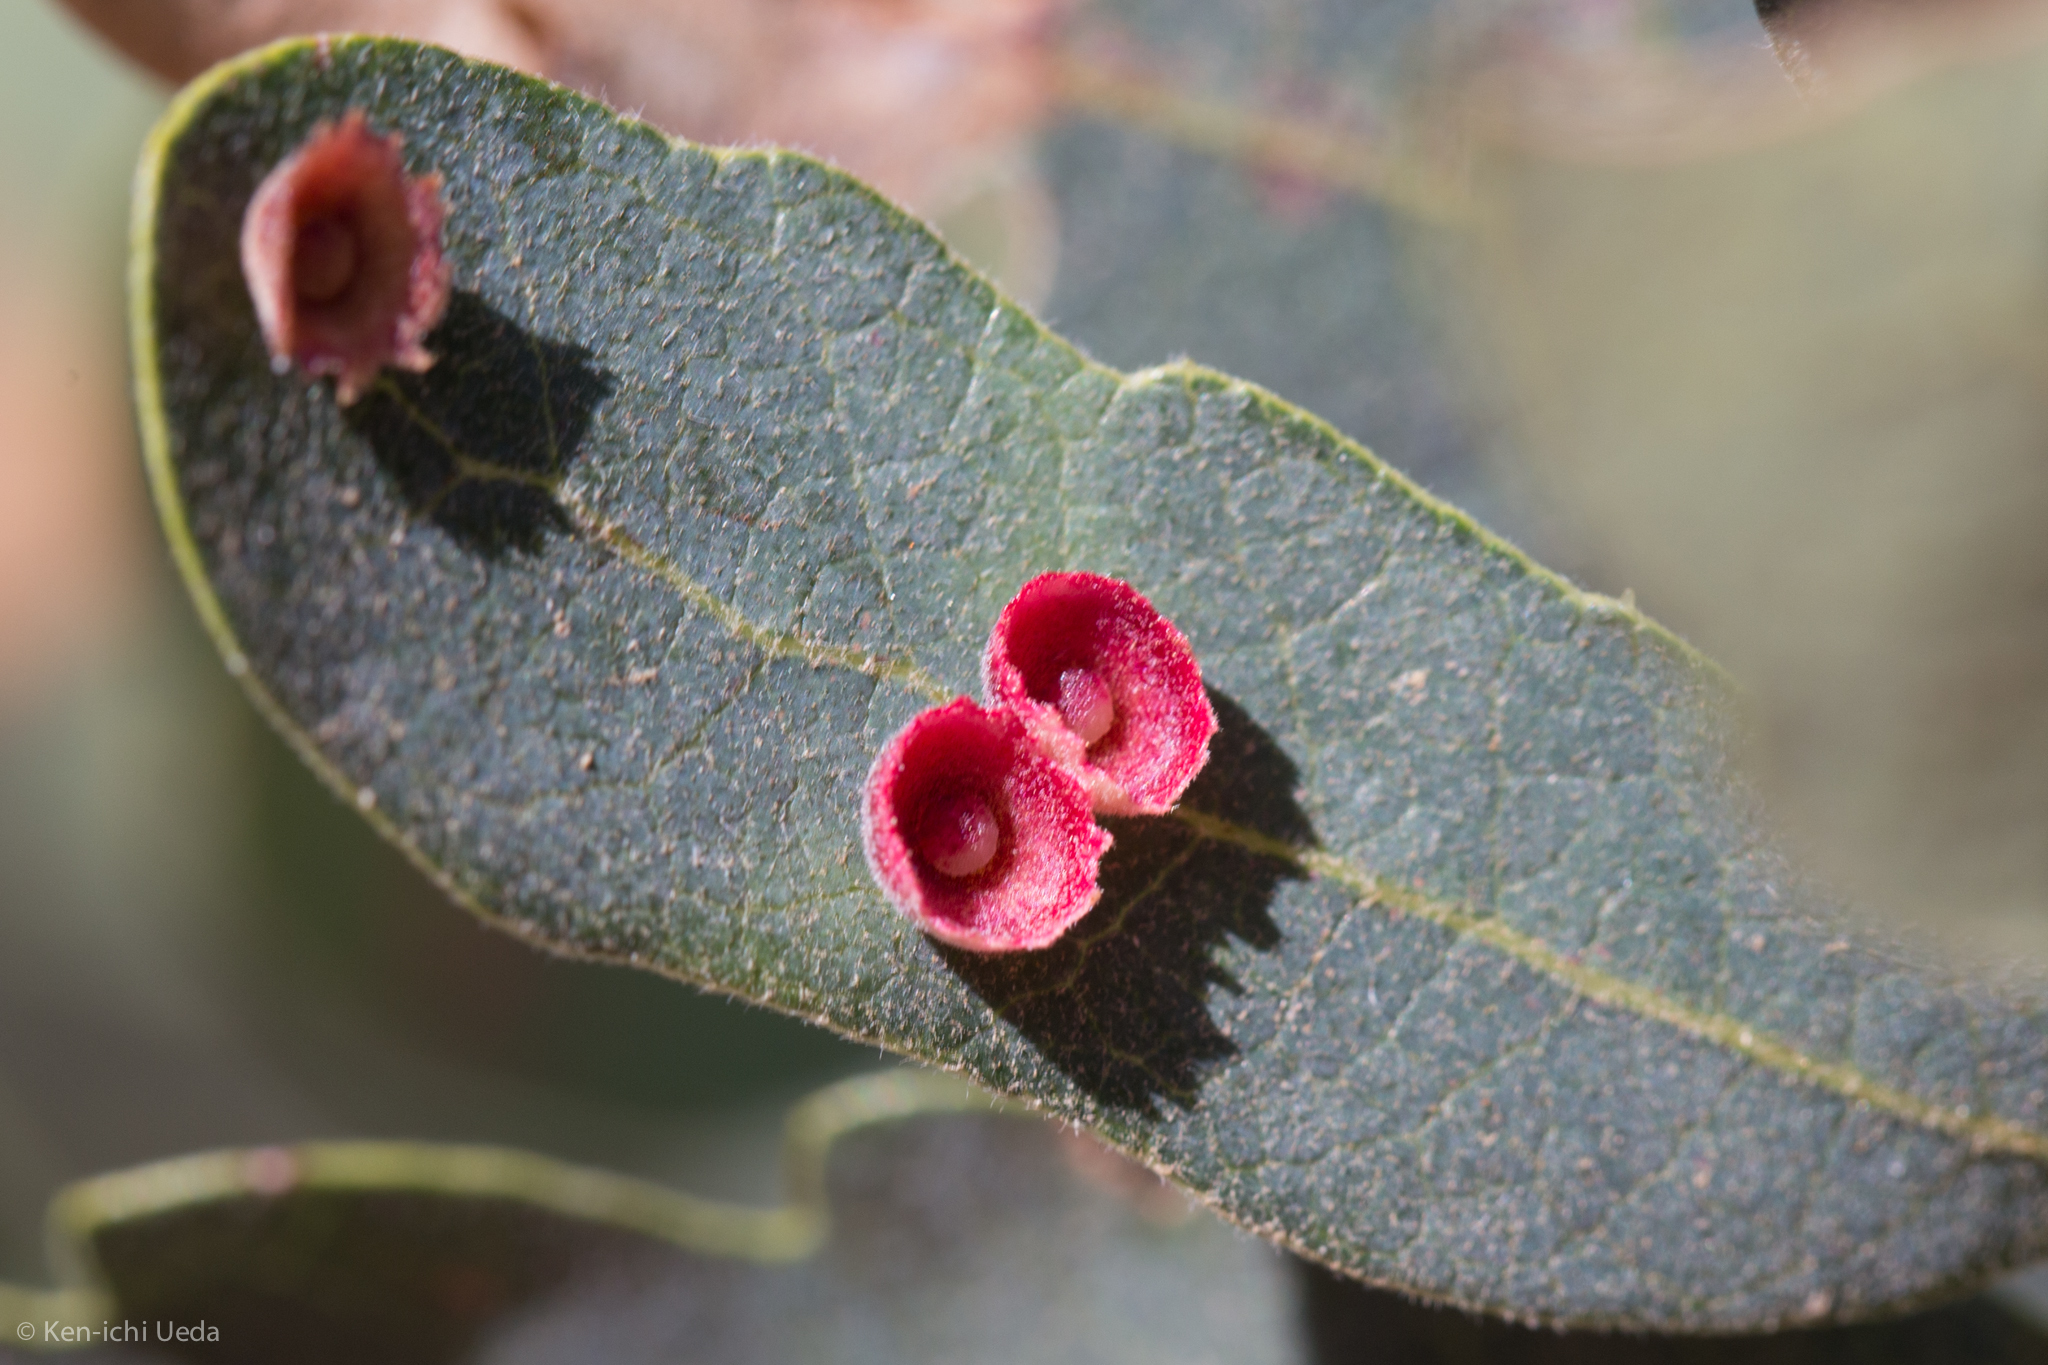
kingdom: Animalia
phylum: Arthropoda
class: Insecta
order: Hymenoptera
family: Cynipidae
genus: Andricus
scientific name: Andricus
